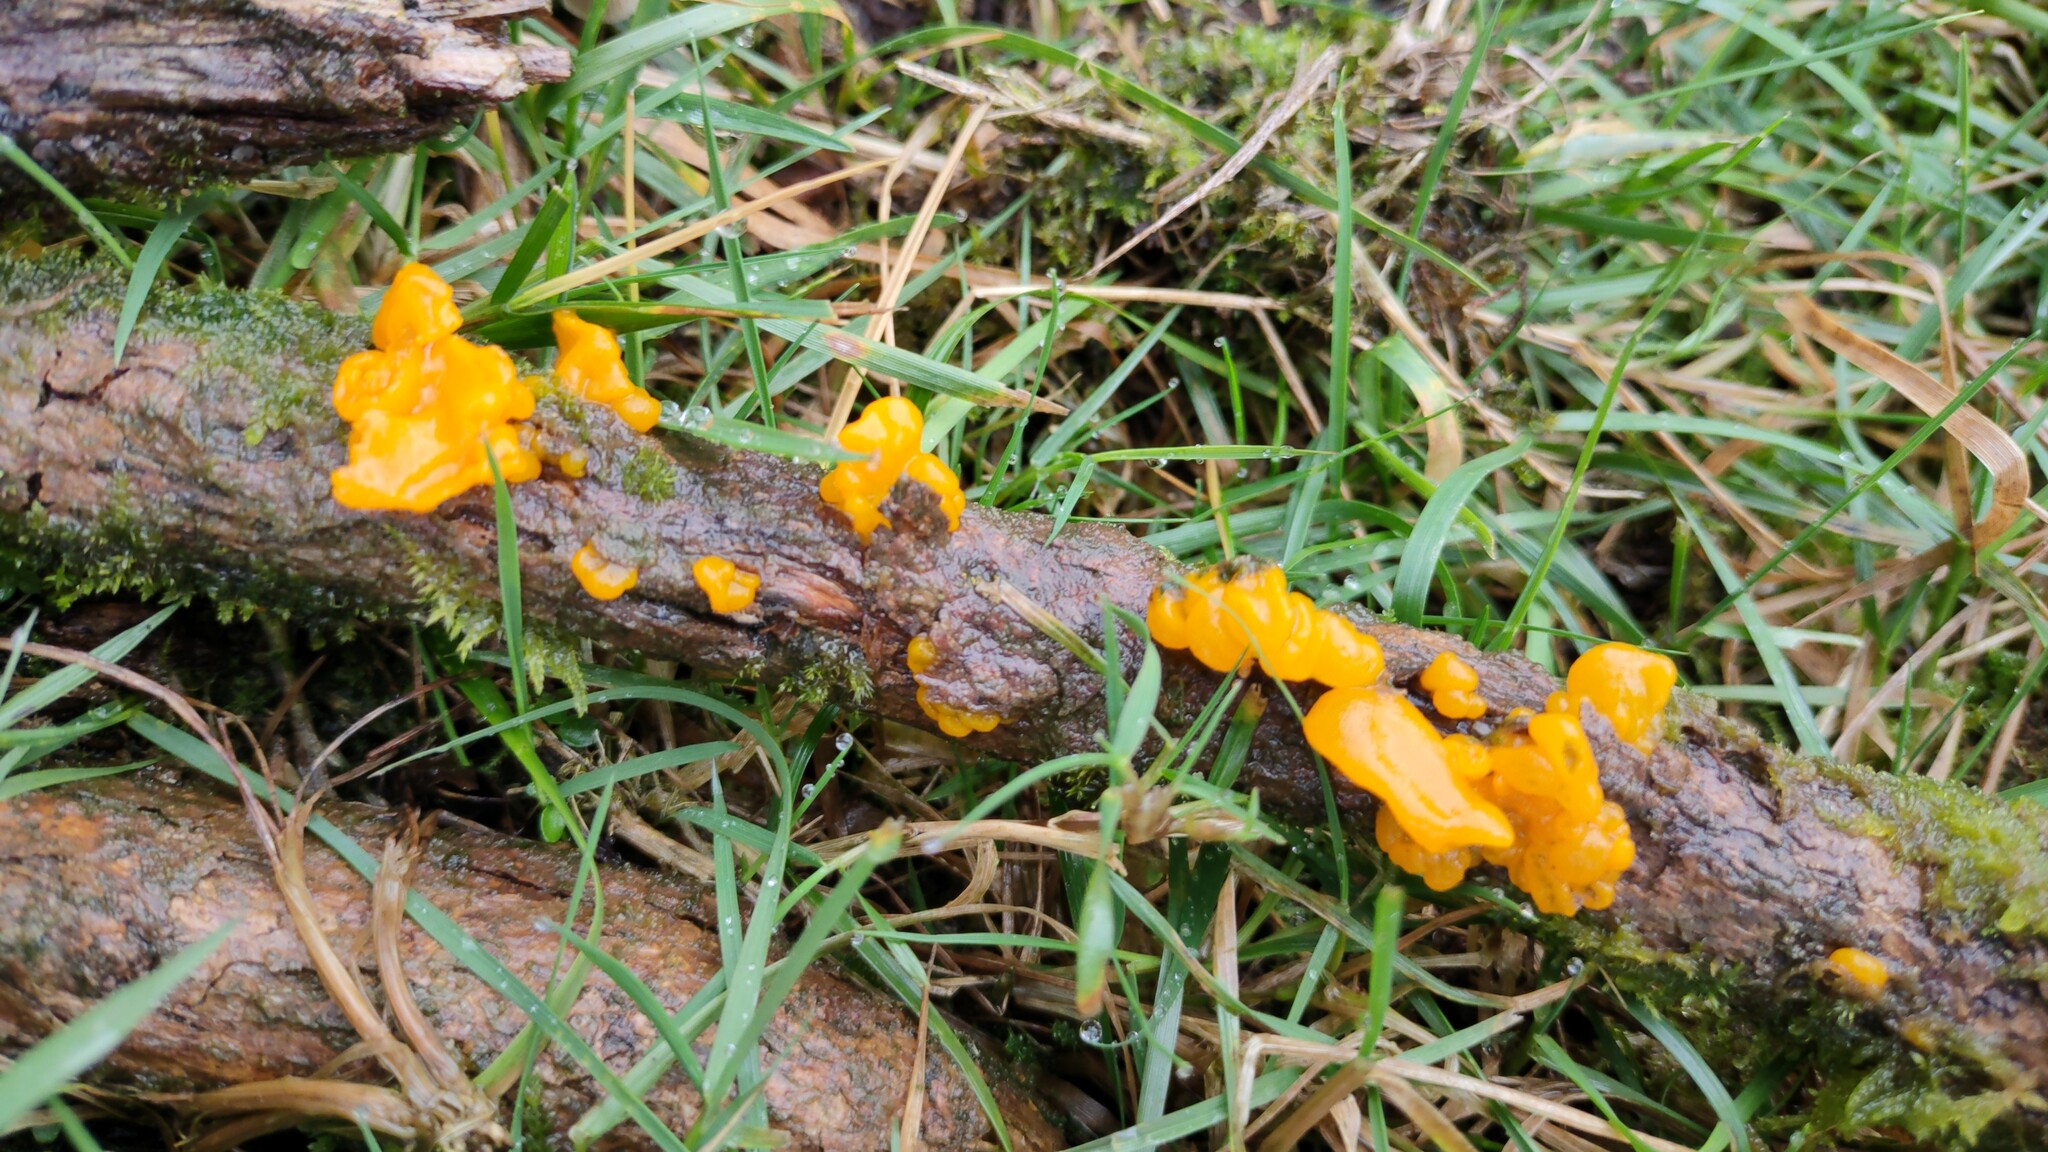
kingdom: Fungi
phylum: Basidiomycota
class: Tremellomycetes
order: Tremellales
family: Tremellaceae
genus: Tremella
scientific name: Tremella mesenterica
